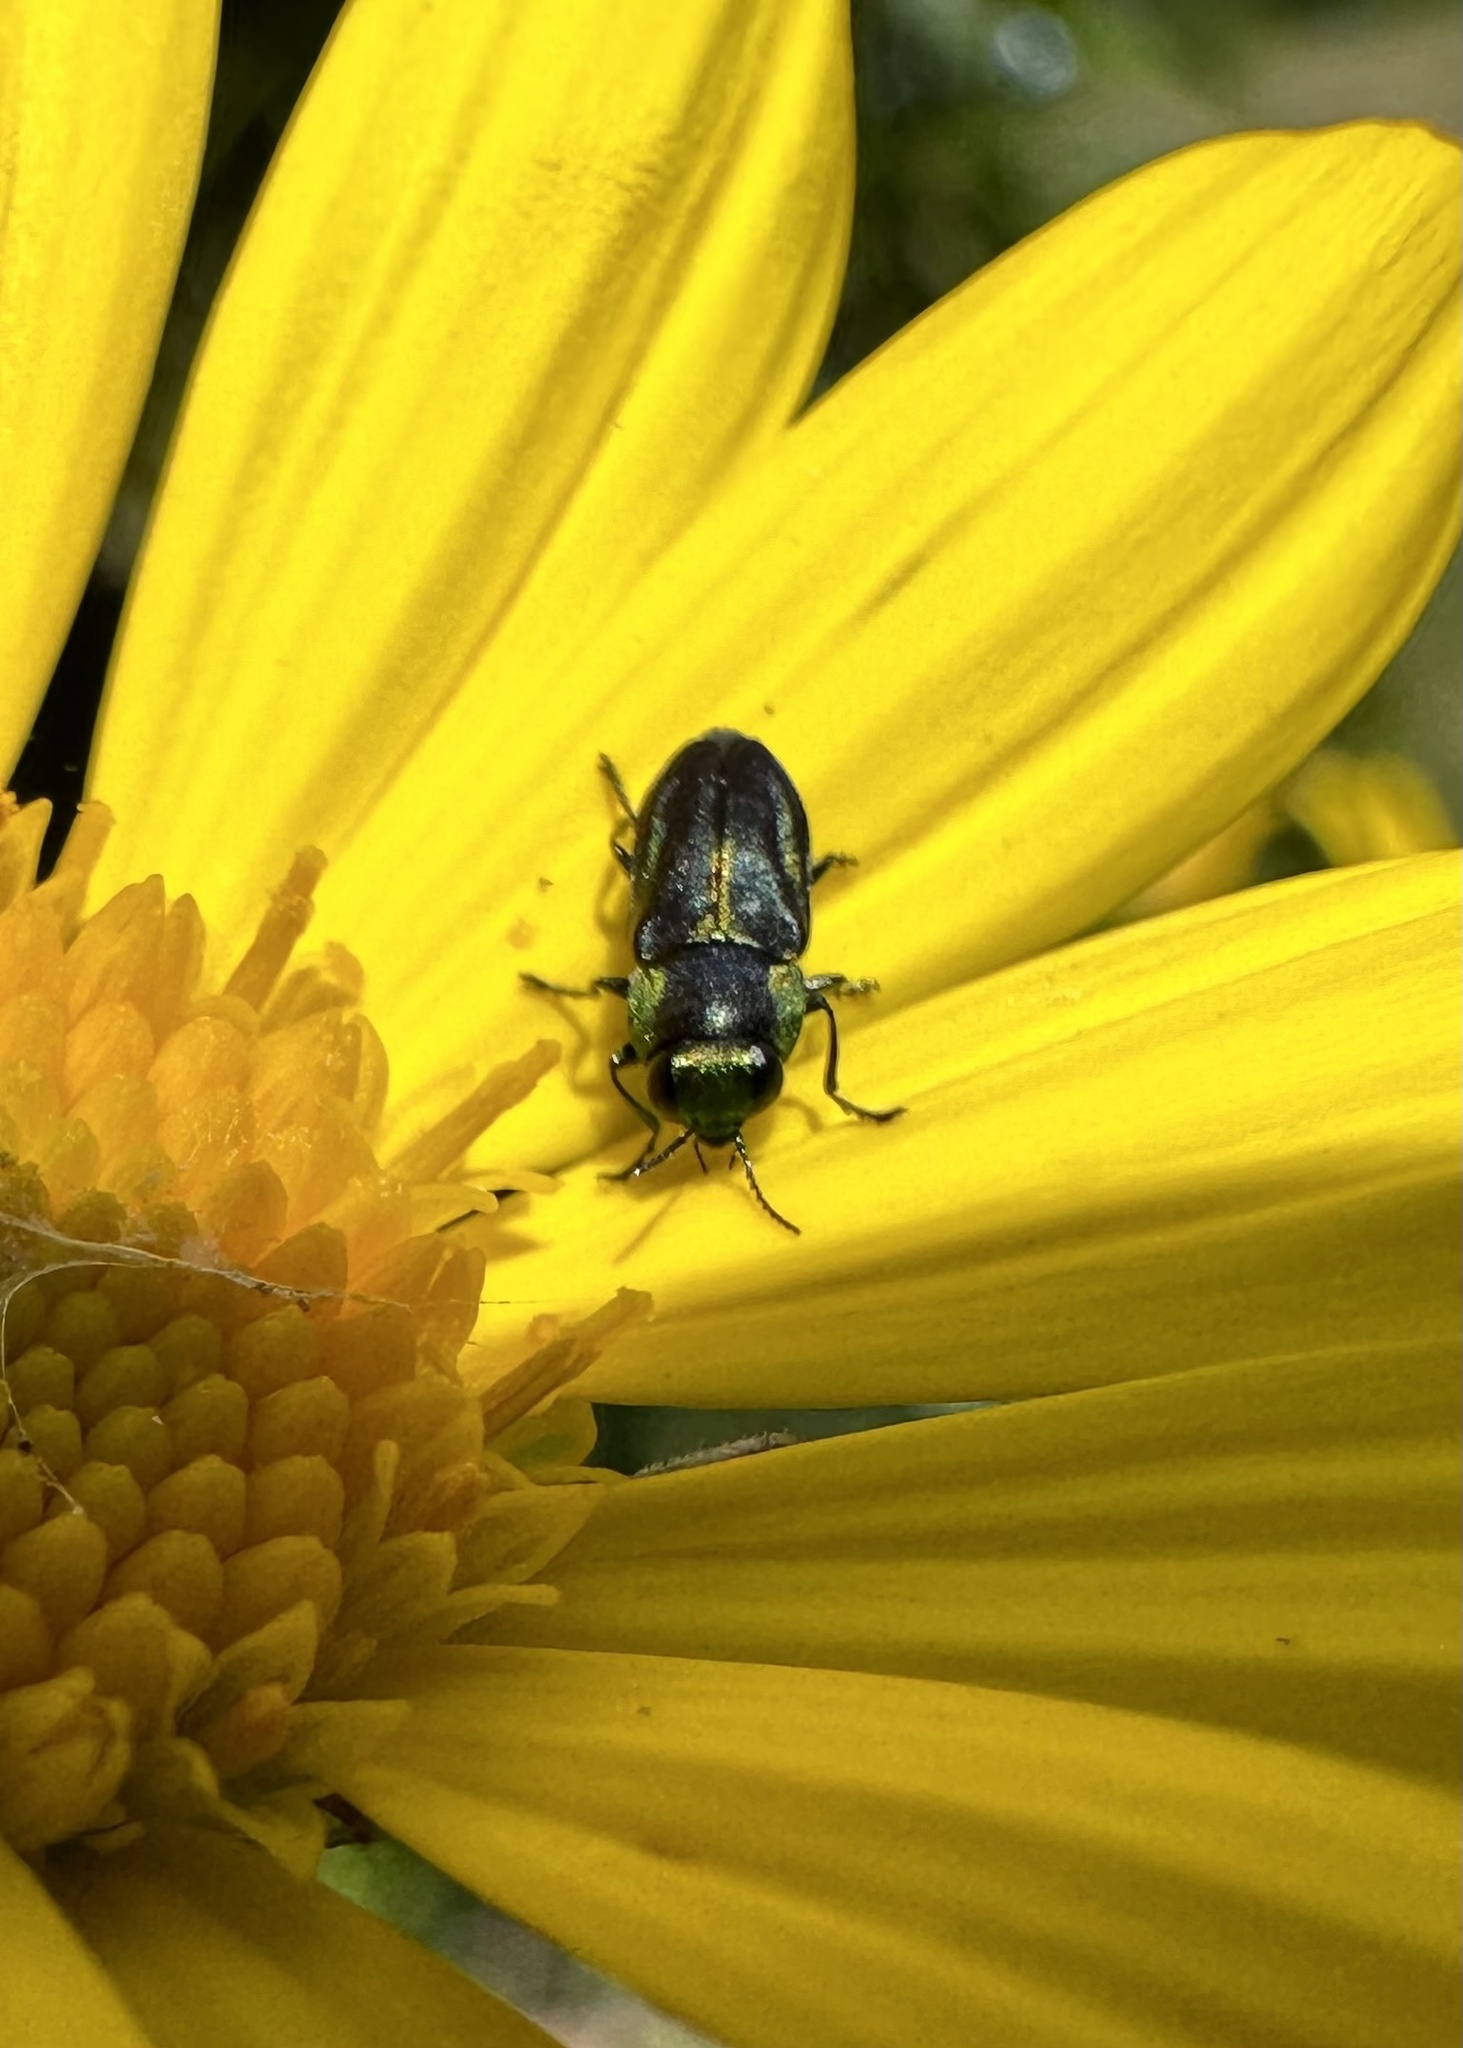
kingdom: Animalia
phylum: Arthropoda
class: Insecta
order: Coleoptera
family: Buprestidae
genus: Bilyaxia
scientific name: Bilyaxia concinna
